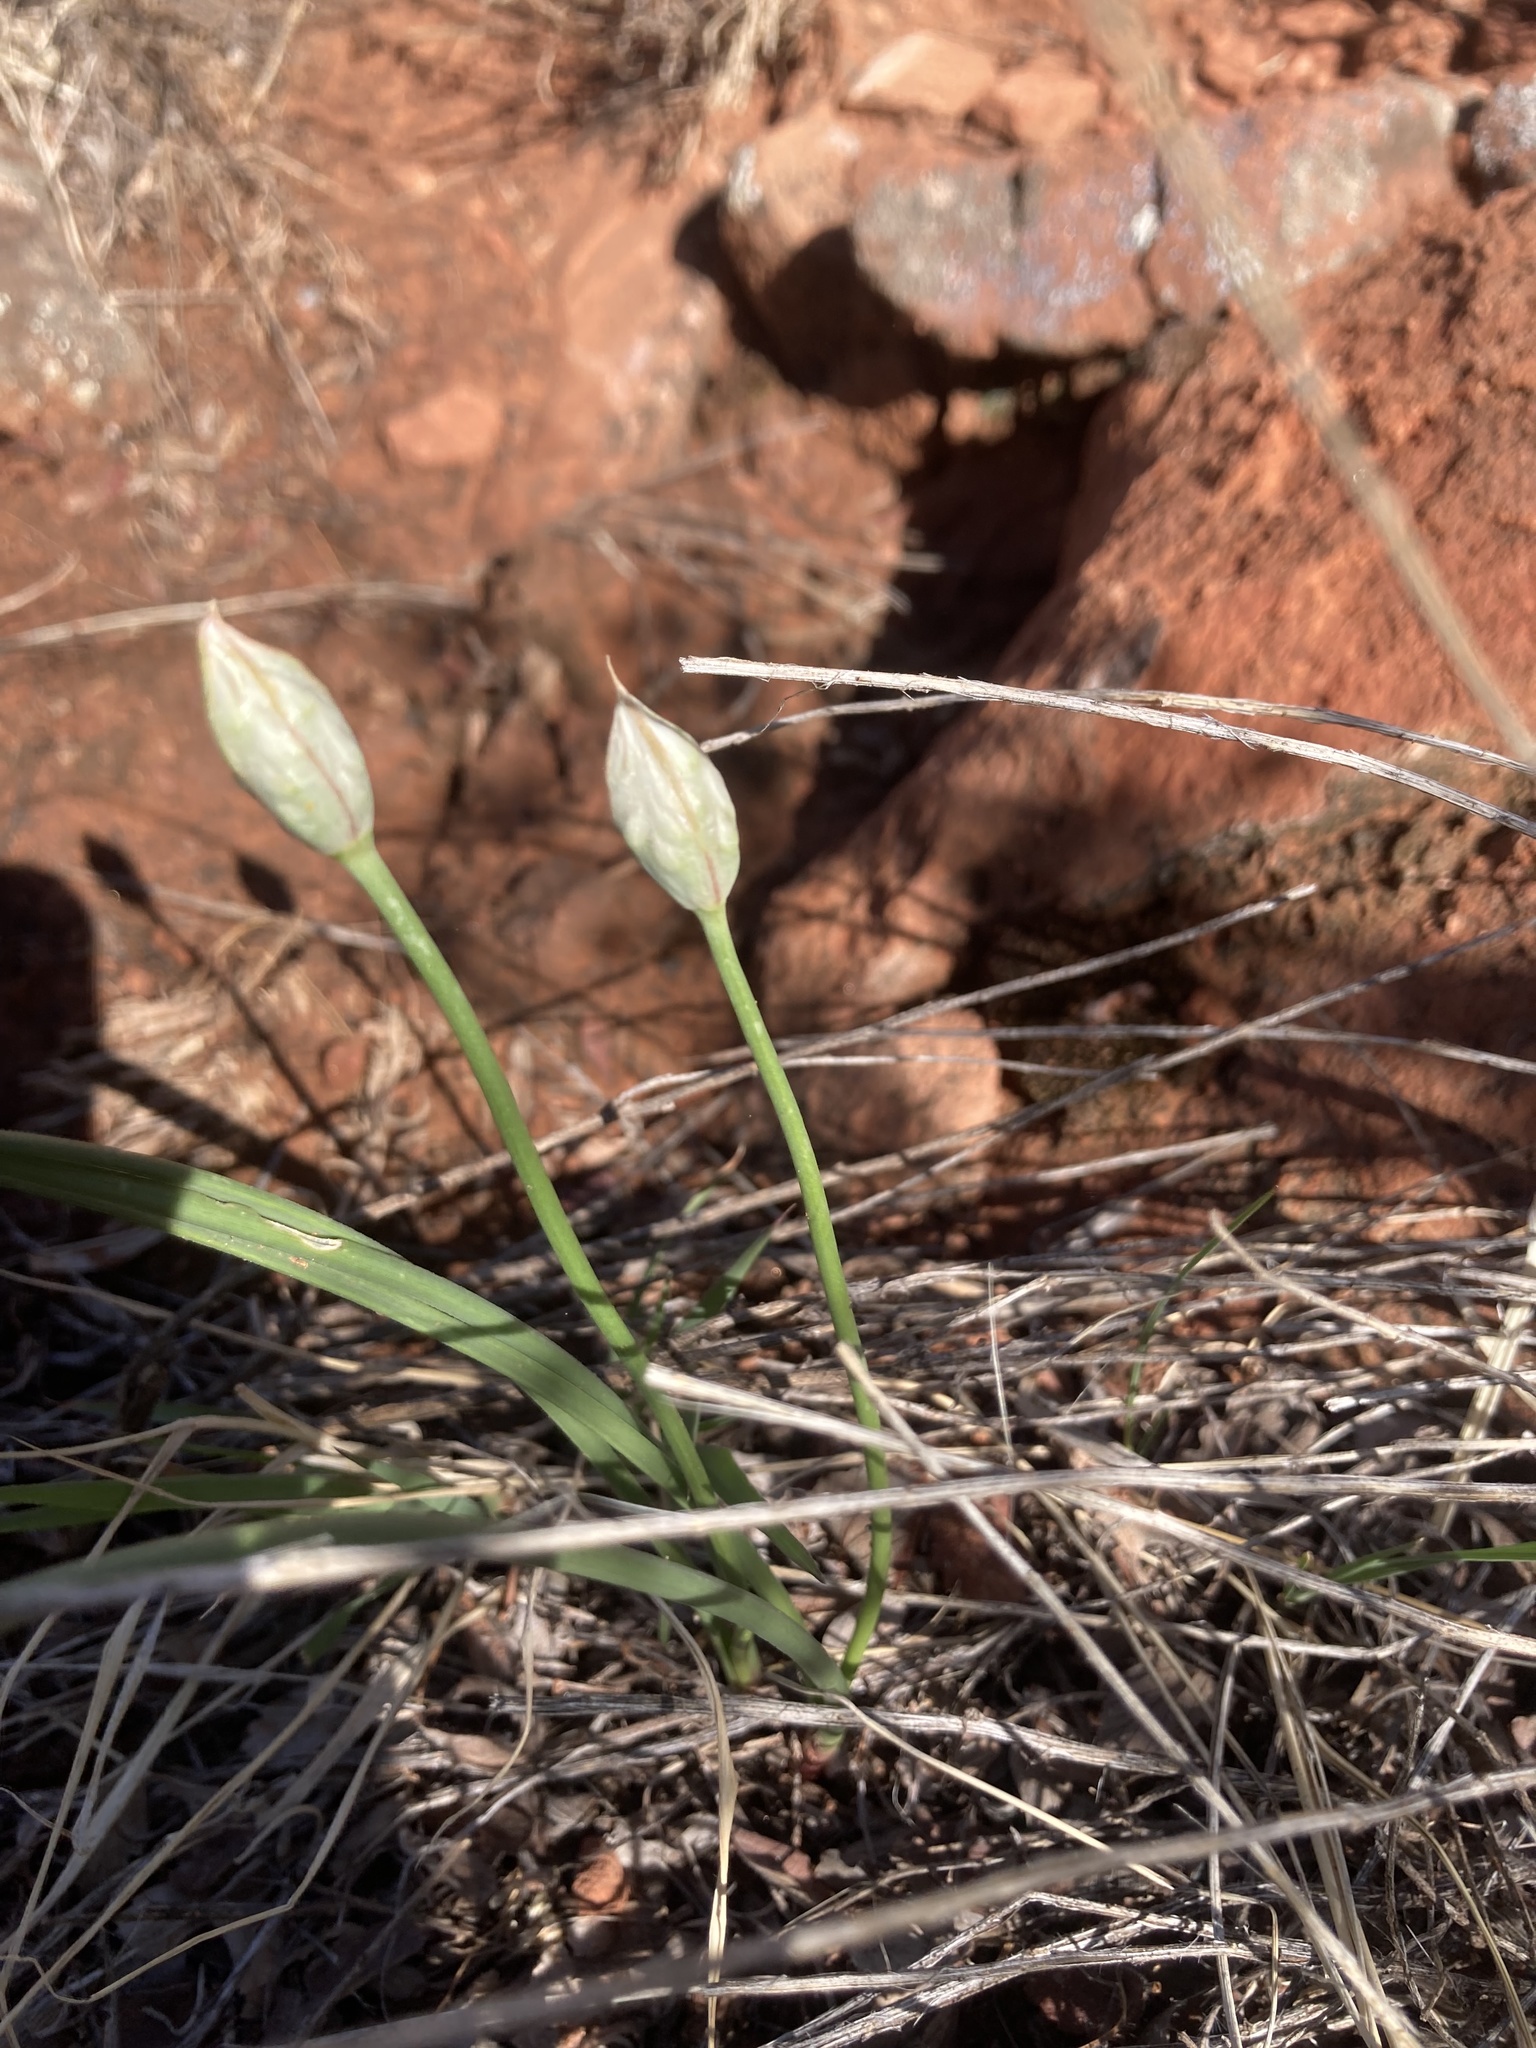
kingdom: Plantae
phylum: Tracheophyta
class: Liliopsida
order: Asparagales
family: Amaryllidaceae
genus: Allium
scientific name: Allium textile
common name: Prairie onion
